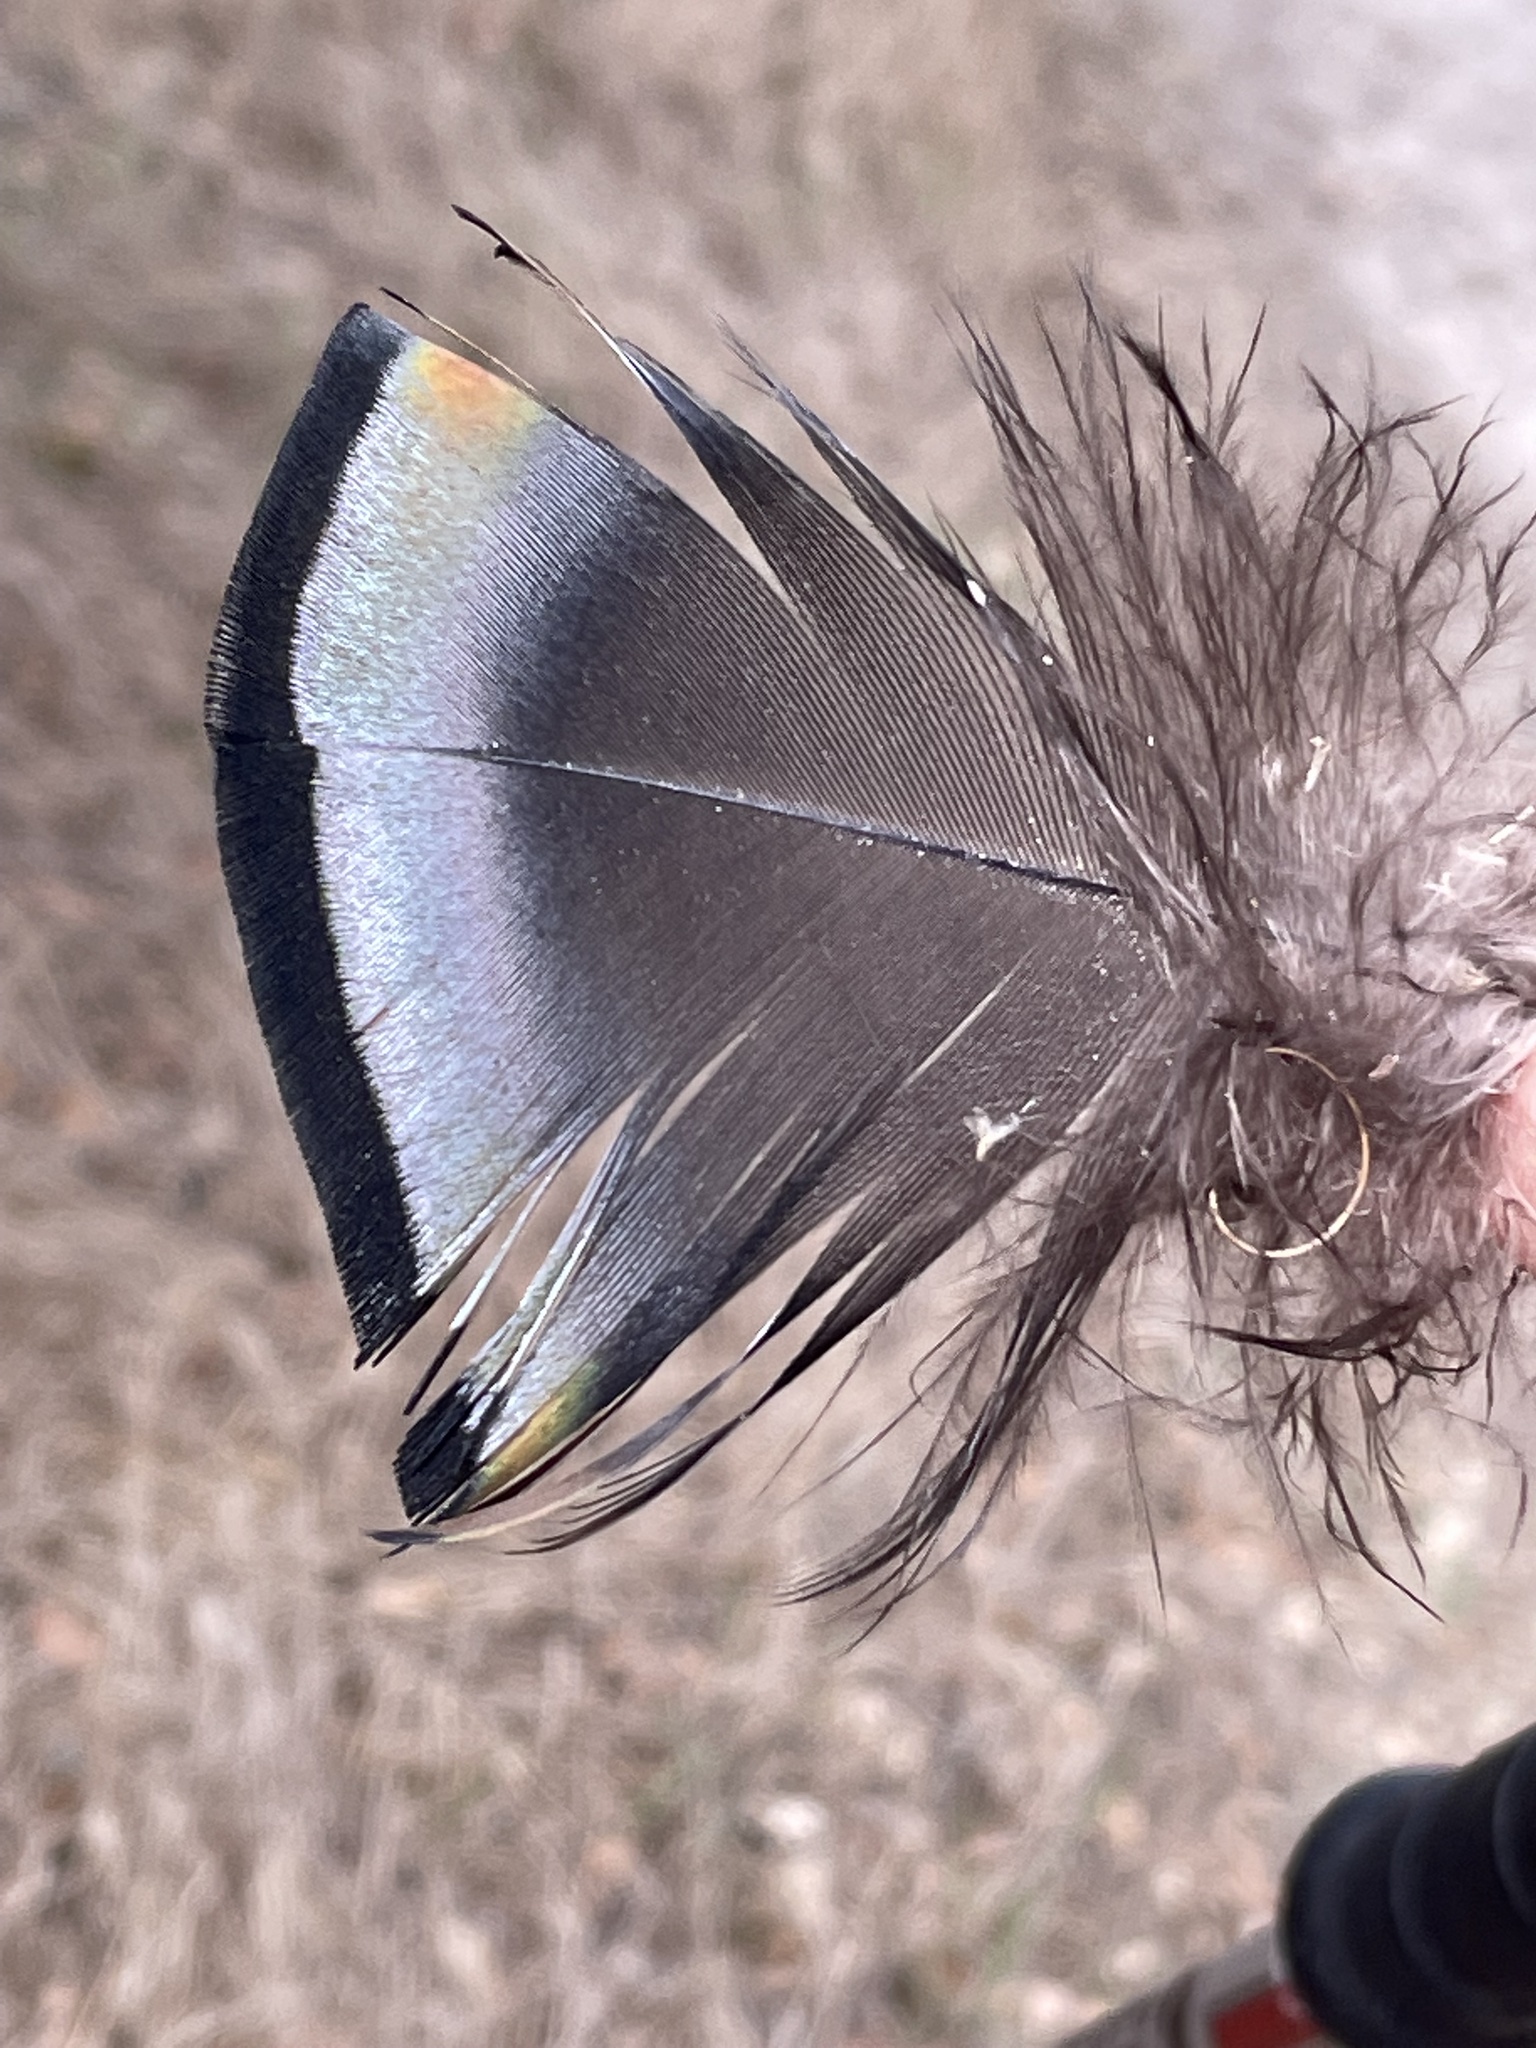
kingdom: Animalia
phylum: Chordata
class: Aves
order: Galliformes
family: Phasianidae
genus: Meleagris
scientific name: Meleagris gallopavo
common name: Wild turkey
